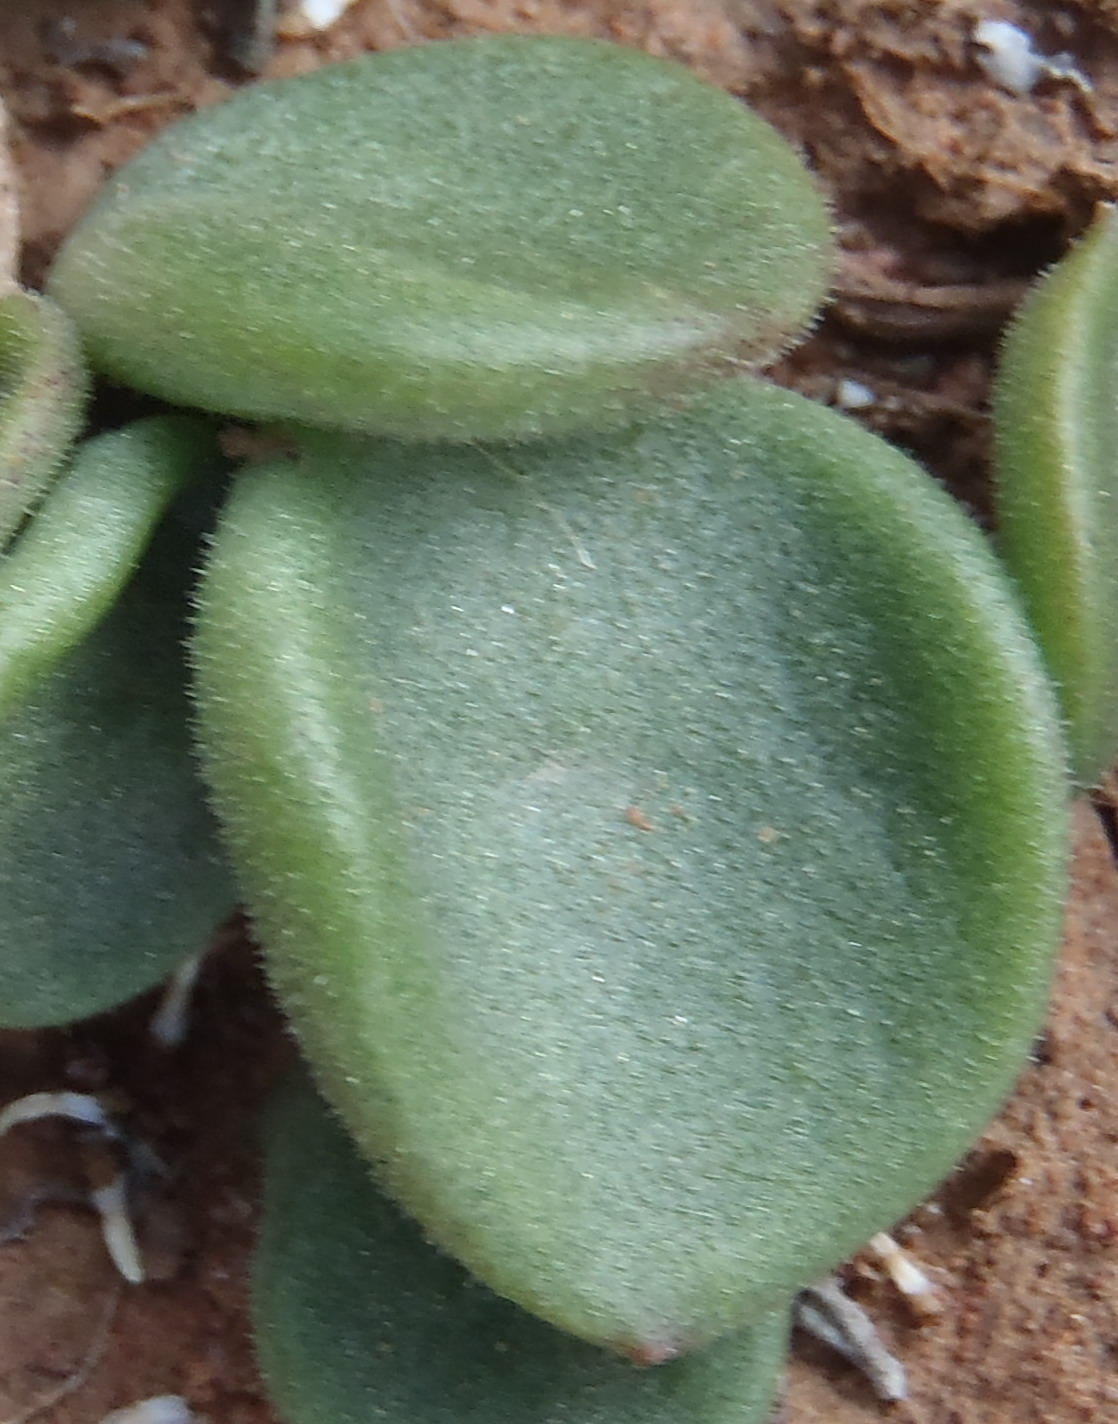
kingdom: Plantae
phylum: Tracheophyta
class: Magnoliopsida
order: Saxifragales
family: Crassulaceae
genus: Tylecodon
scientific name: Tylecodon ventricosus
